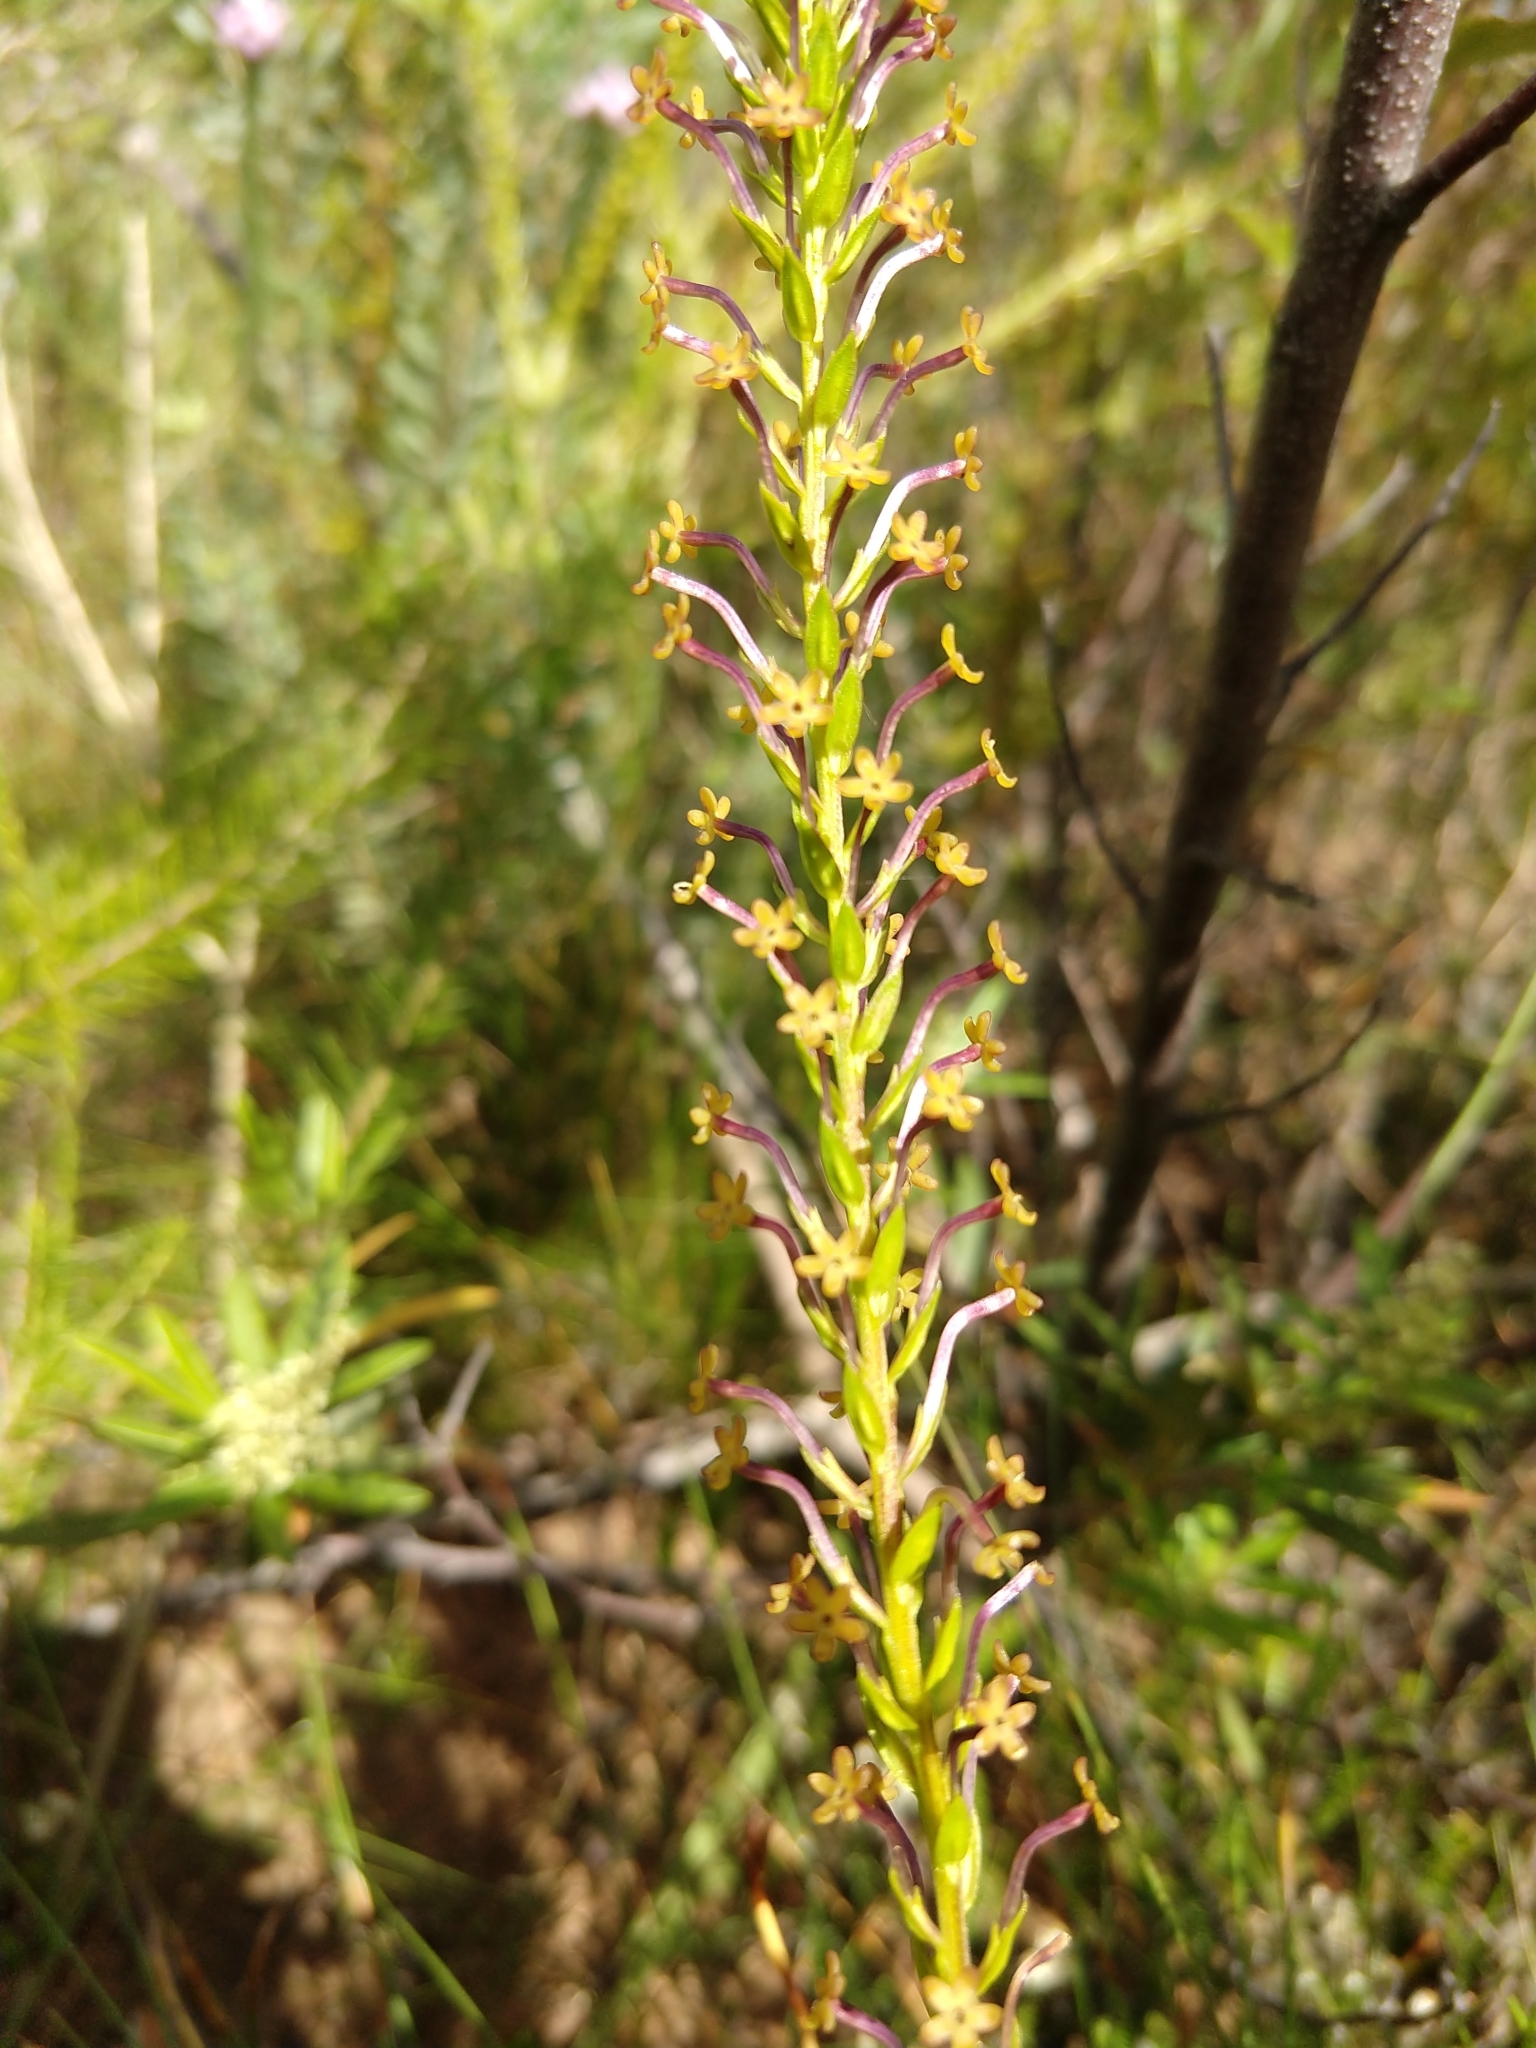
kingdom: Plantae
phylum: Tracheophyta
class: Magnoliopsida
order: Lamiales
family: Scrophulariaceae
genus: Microdon
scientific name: Microdon dubius
